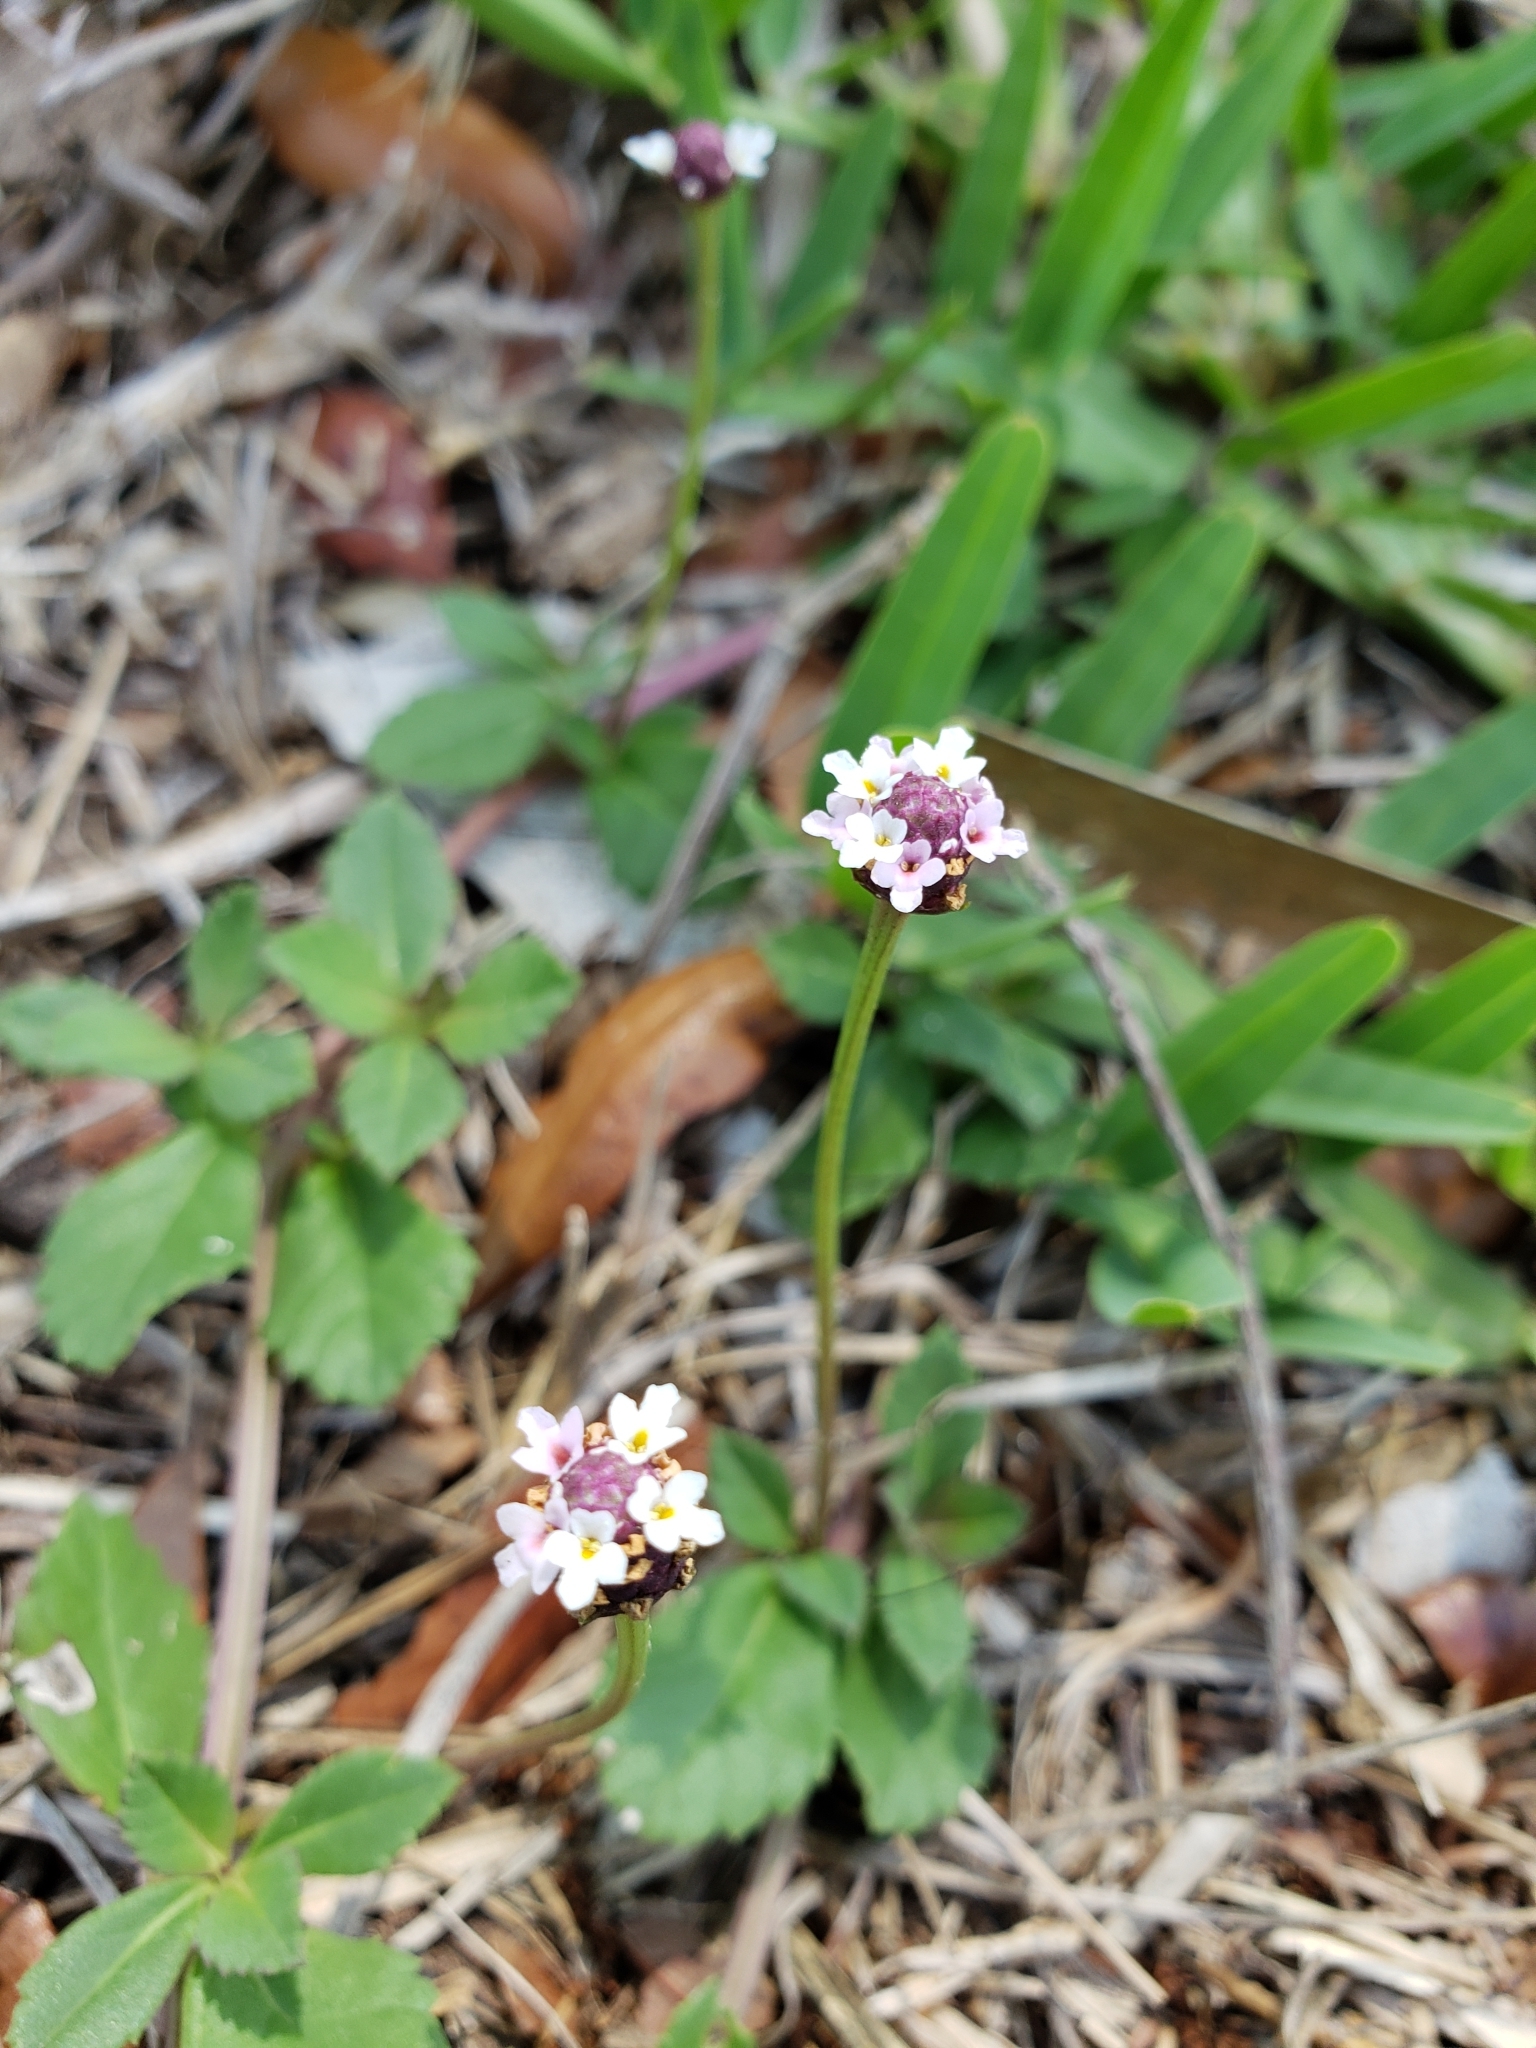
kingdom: Plantae
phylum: Tracheophyta
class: Magnoliopsida
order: Lamiales
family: Verbenaceae
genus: Phyla
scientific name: Phyla nodiflora
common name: Frogfruit
